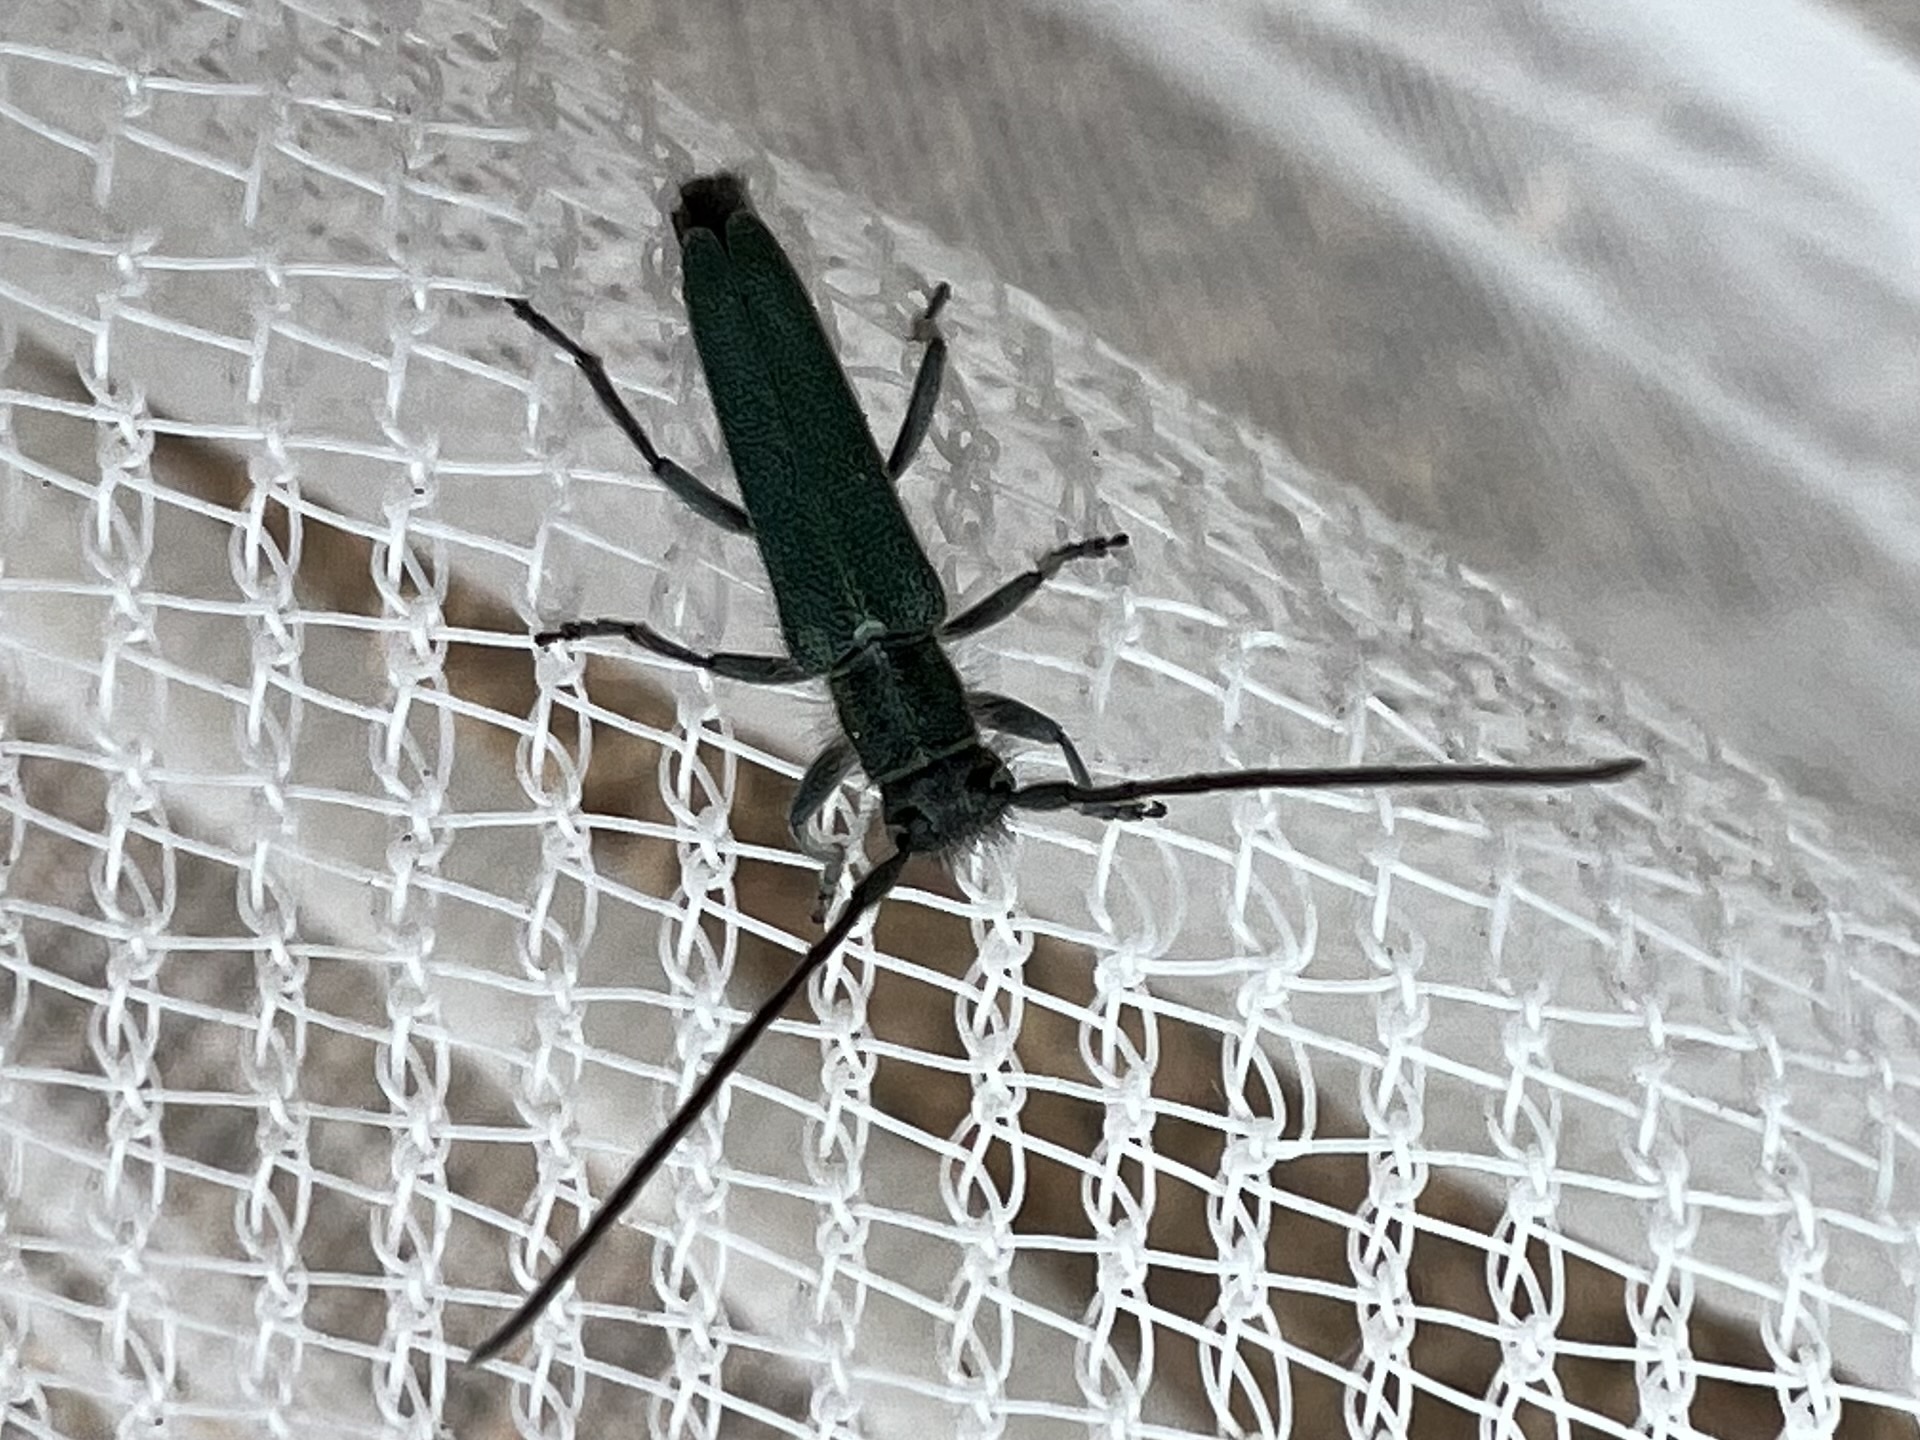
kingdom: Animalia
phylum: Arthropoda
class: Insecta
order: Coleoptera
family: Cerambycidae
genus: Phytoecia
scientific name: Phytoecia coerulescens
